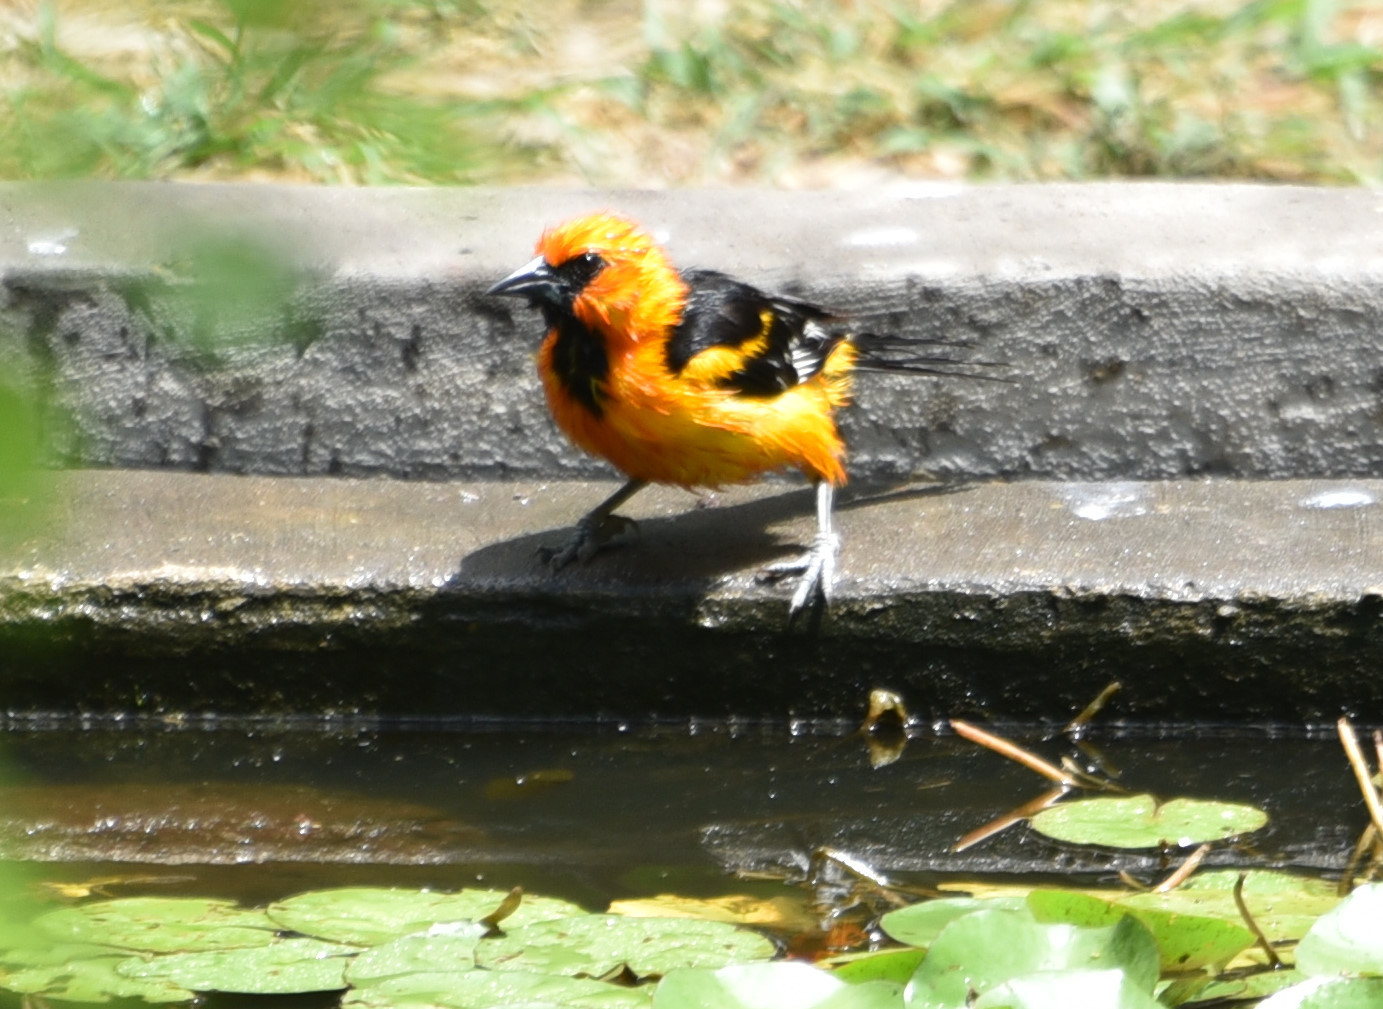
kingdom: Animalia
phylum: Chordata
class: Aves
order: Passeriformes
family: Icteridae
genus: Icterus
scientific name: Icterus gularis
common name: Altamira oriole
